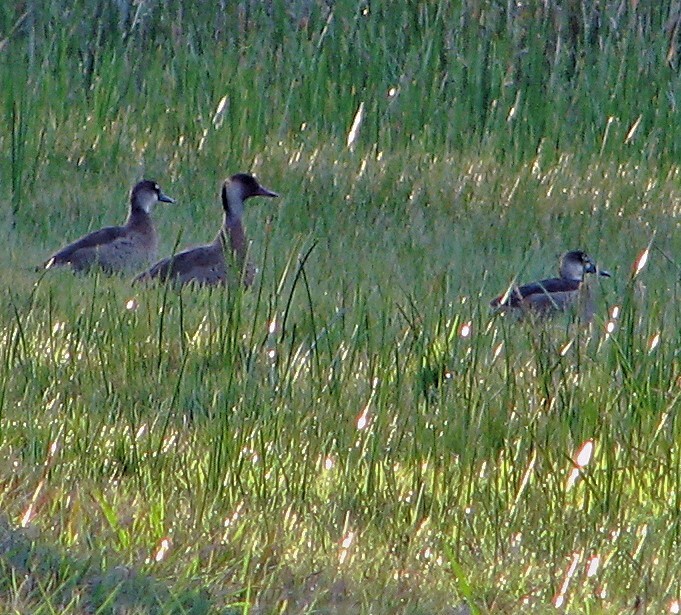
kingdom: Animalia
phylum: Chordata
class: Aves
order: Anseriformes
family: Anatidae
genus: Amazonetta
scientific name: Amazonetta brasiliensis
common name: Brazilian teal
